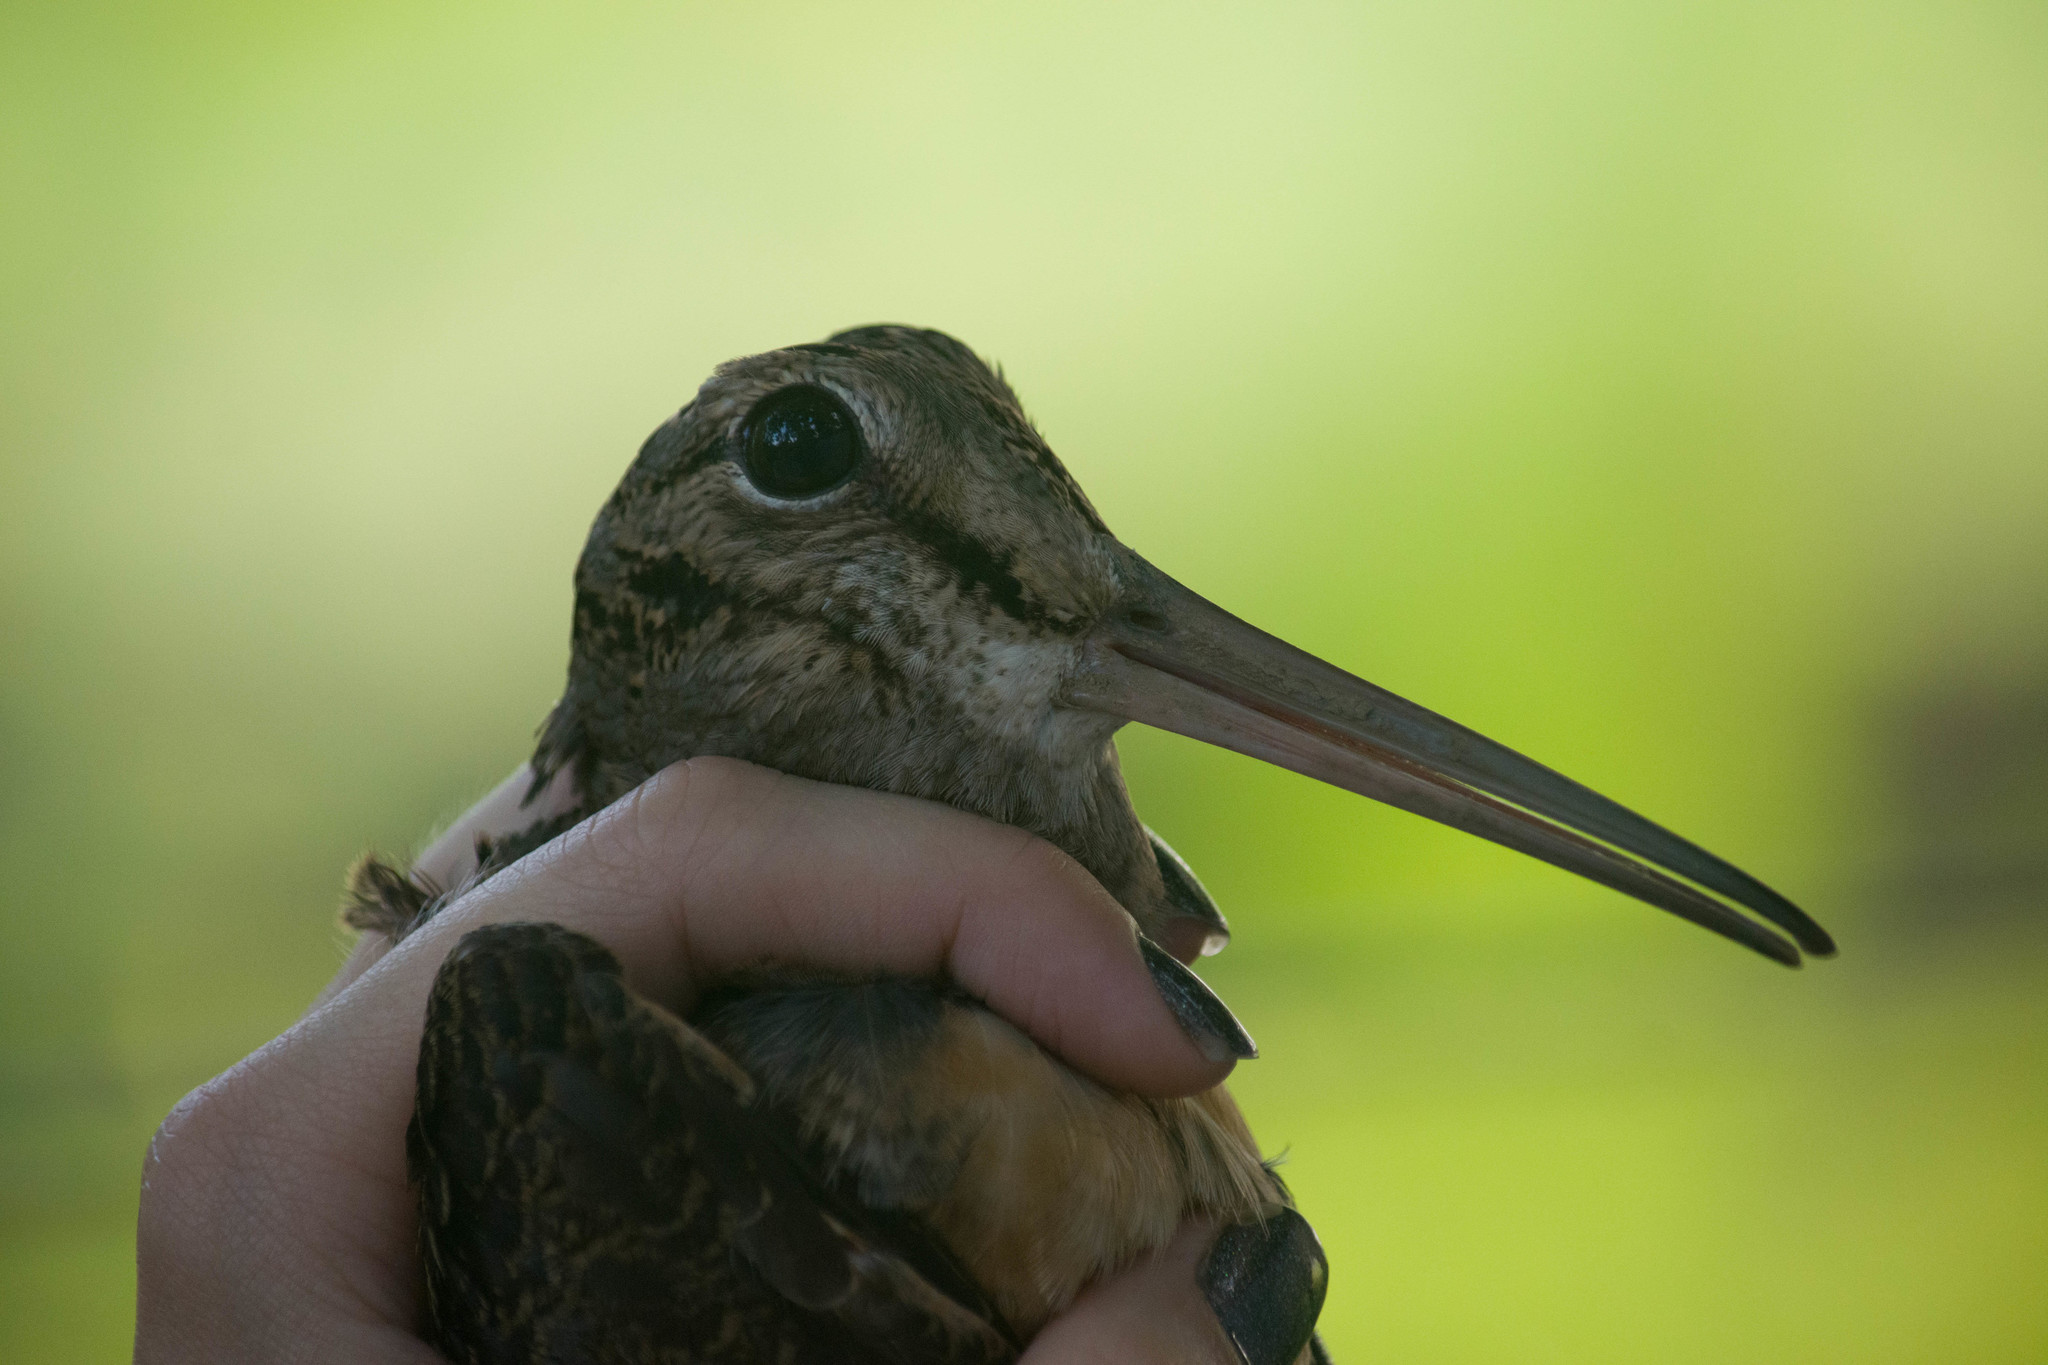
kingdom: Animalia
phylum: Chordata
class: Aves
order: Charadriiformes
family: Scolopacidae
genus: Scolopax
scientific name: Scolopax minor
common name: American woodcock
